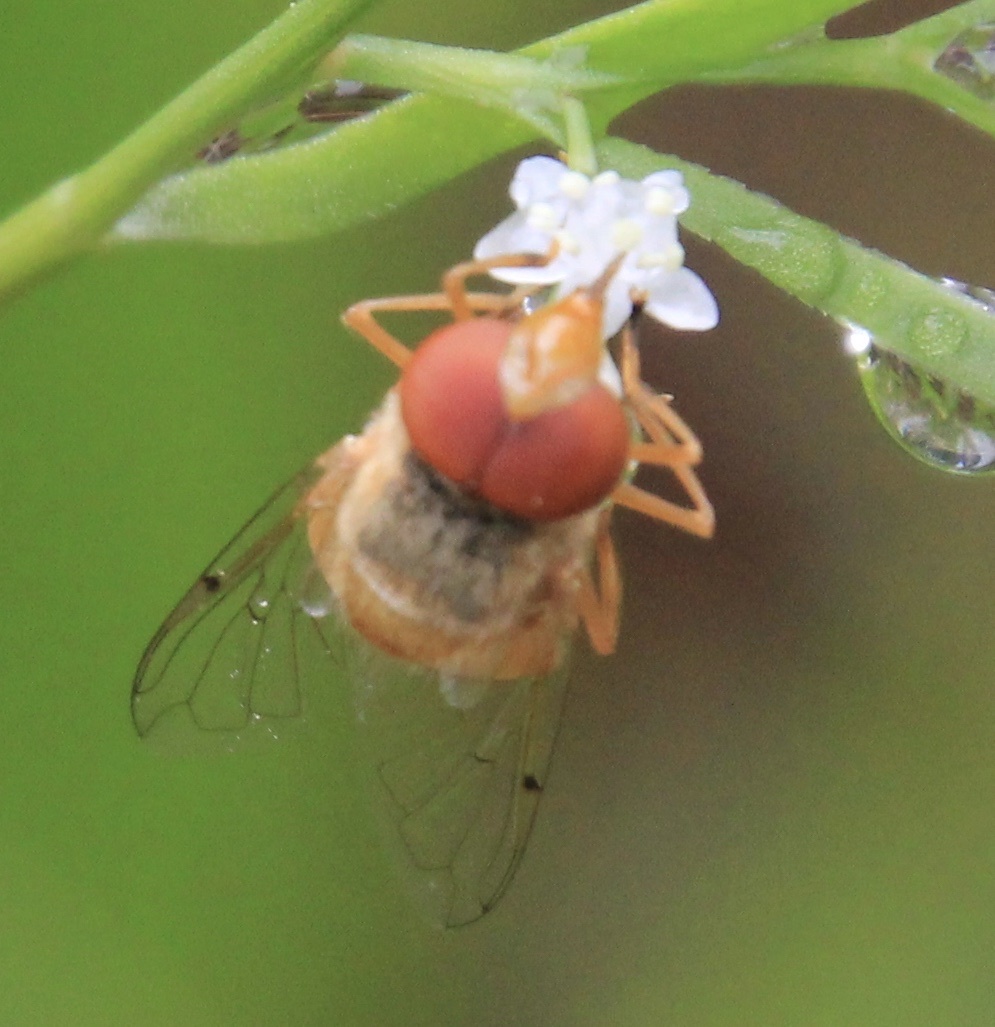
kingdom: Animalia
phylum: Arthropoda
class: Insecta
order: Diptera
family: Syrphidae
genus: Copestylum
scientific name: Copestylum sexmaculatum
